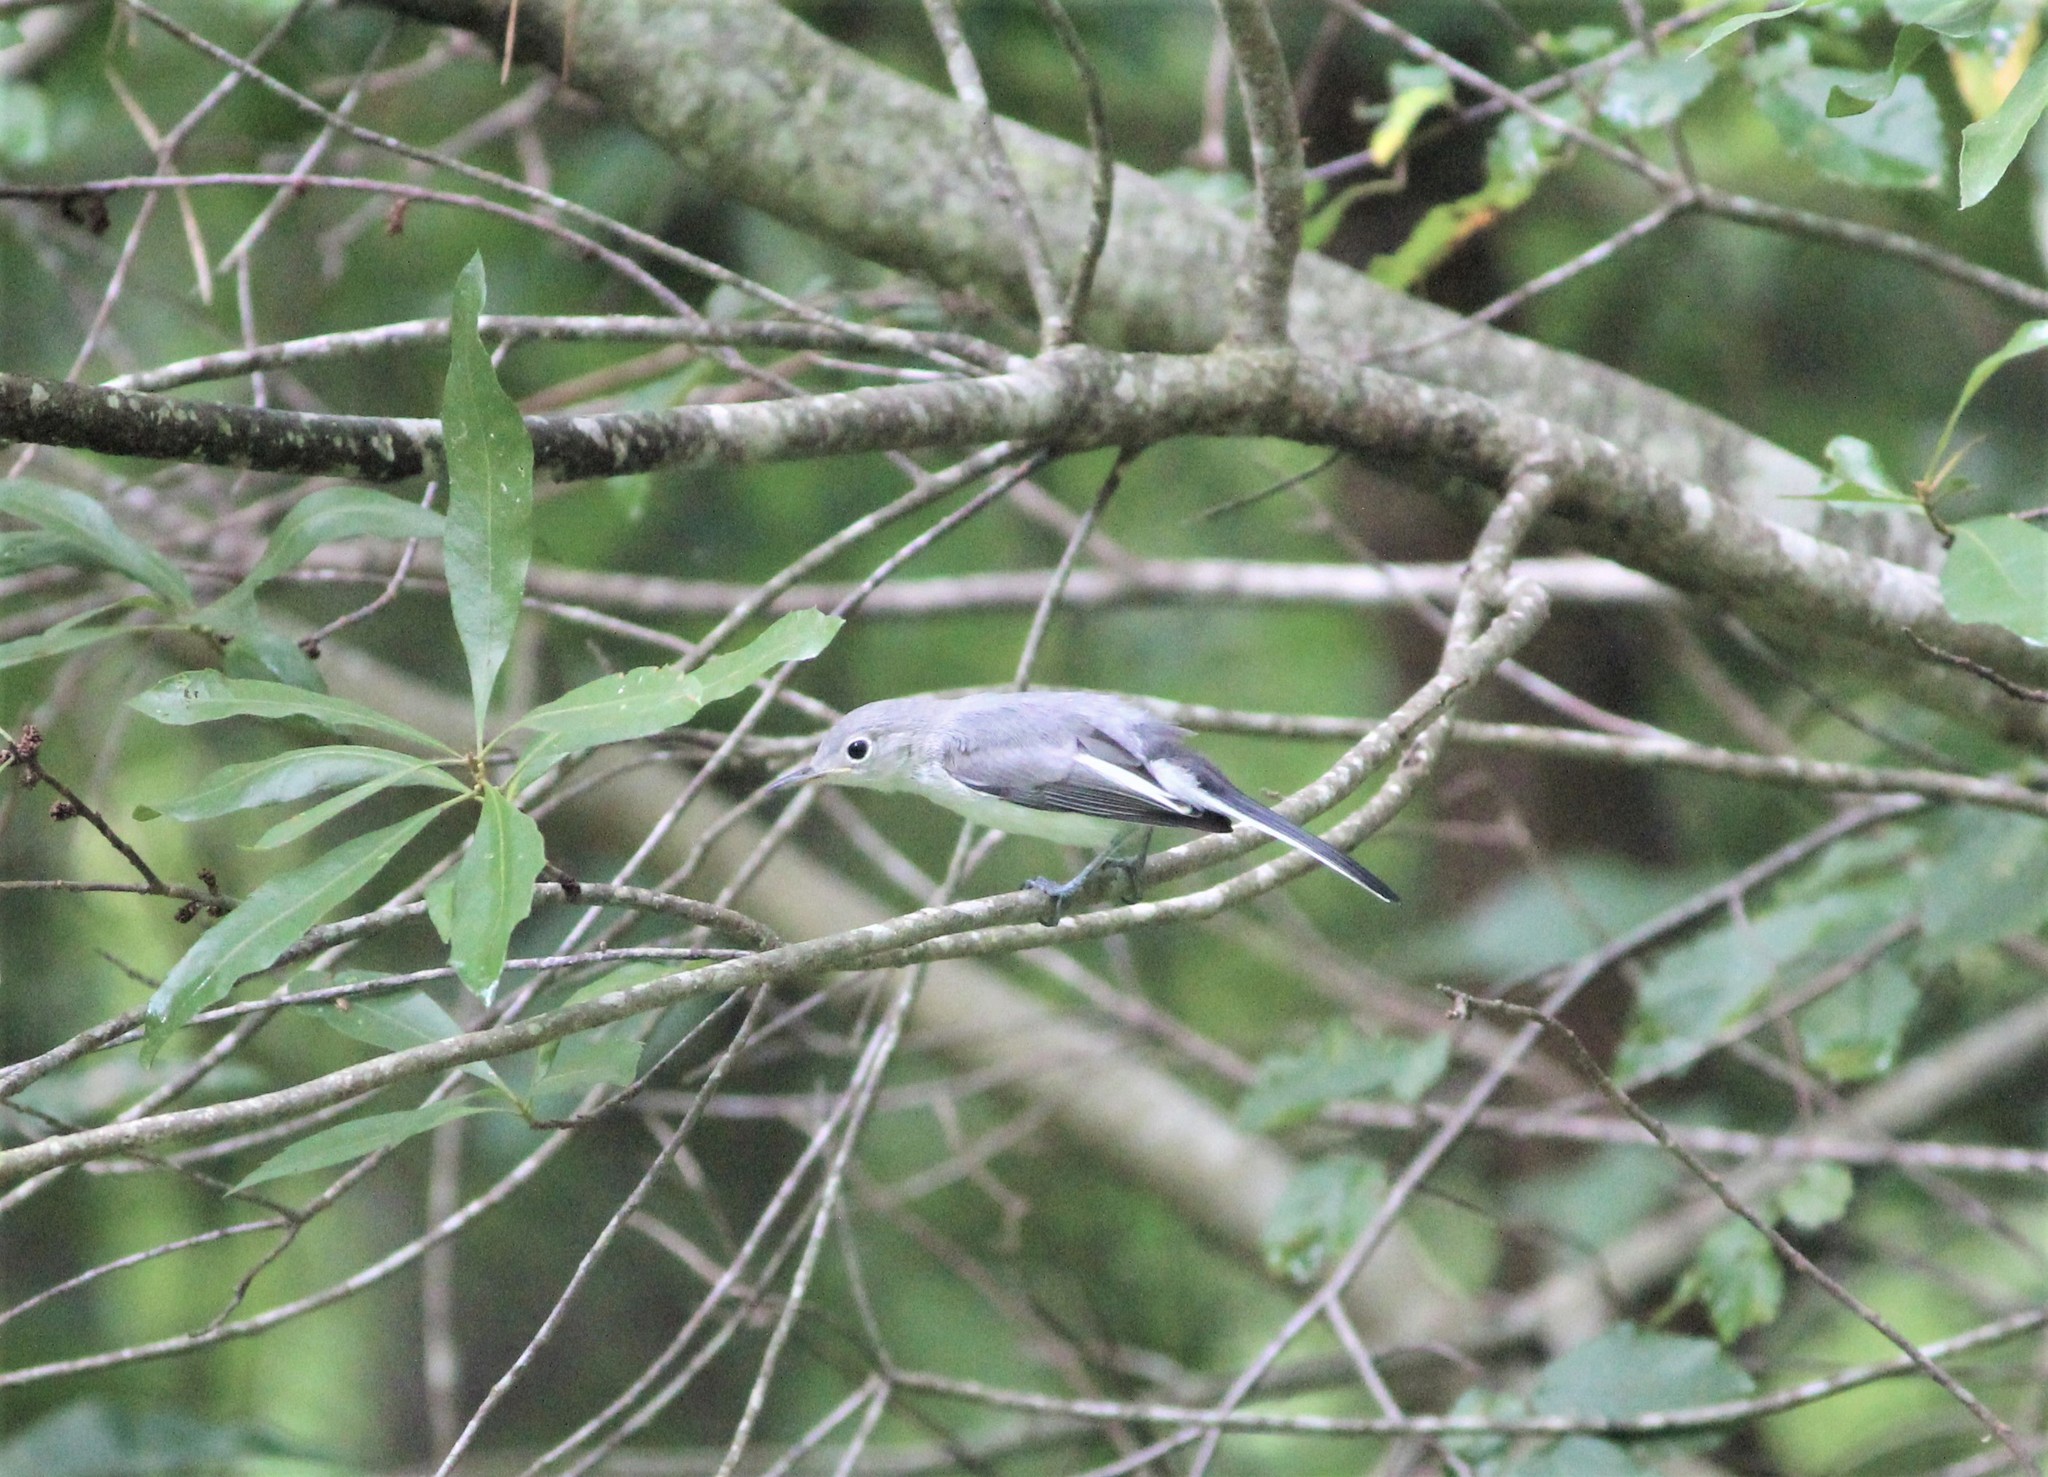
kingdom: Animalia
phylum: Chordata
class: Aves
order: Passeriformes
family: Polioptilidae
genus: Polioptila
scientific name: Polioptila caerulea
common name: Blue-gray gnatcatcher
